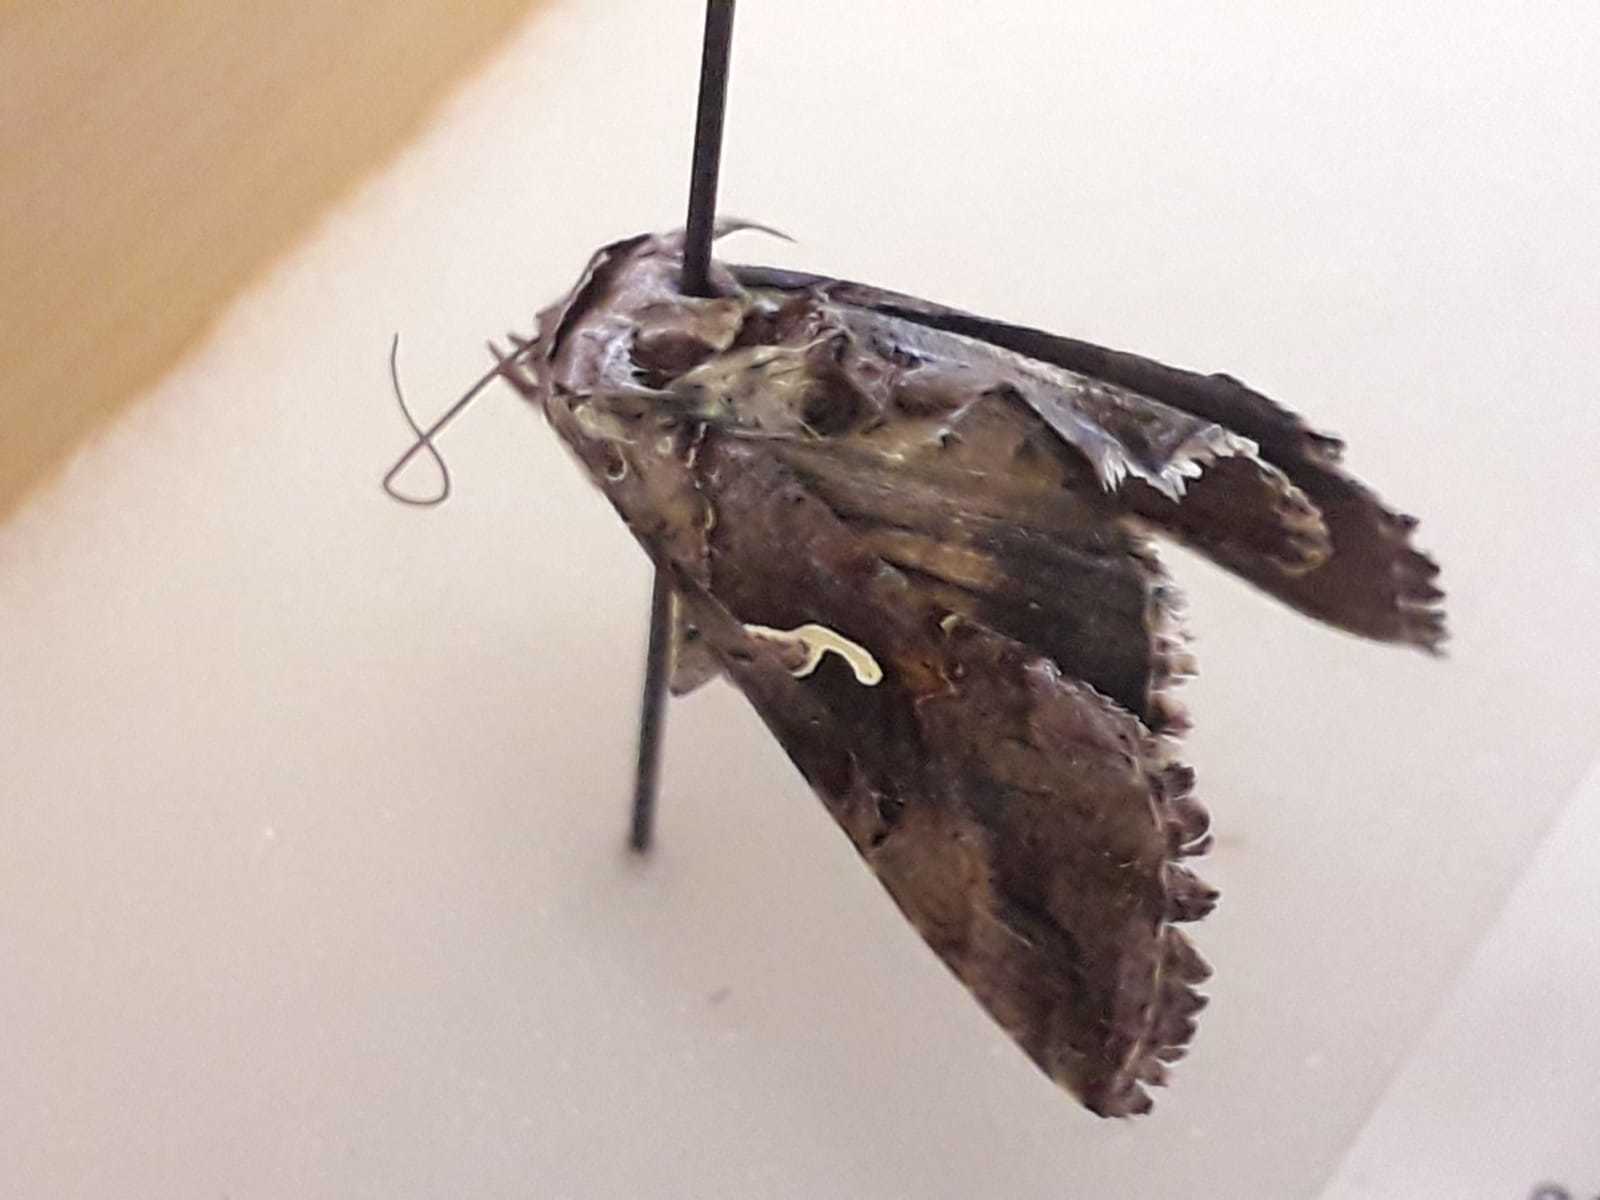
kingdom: Animalia
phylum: Arthropoda
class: Insecta
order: Lepidoptera
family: Noctuidae
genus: Autographa
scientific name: Autographa gamma
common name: Silver y
